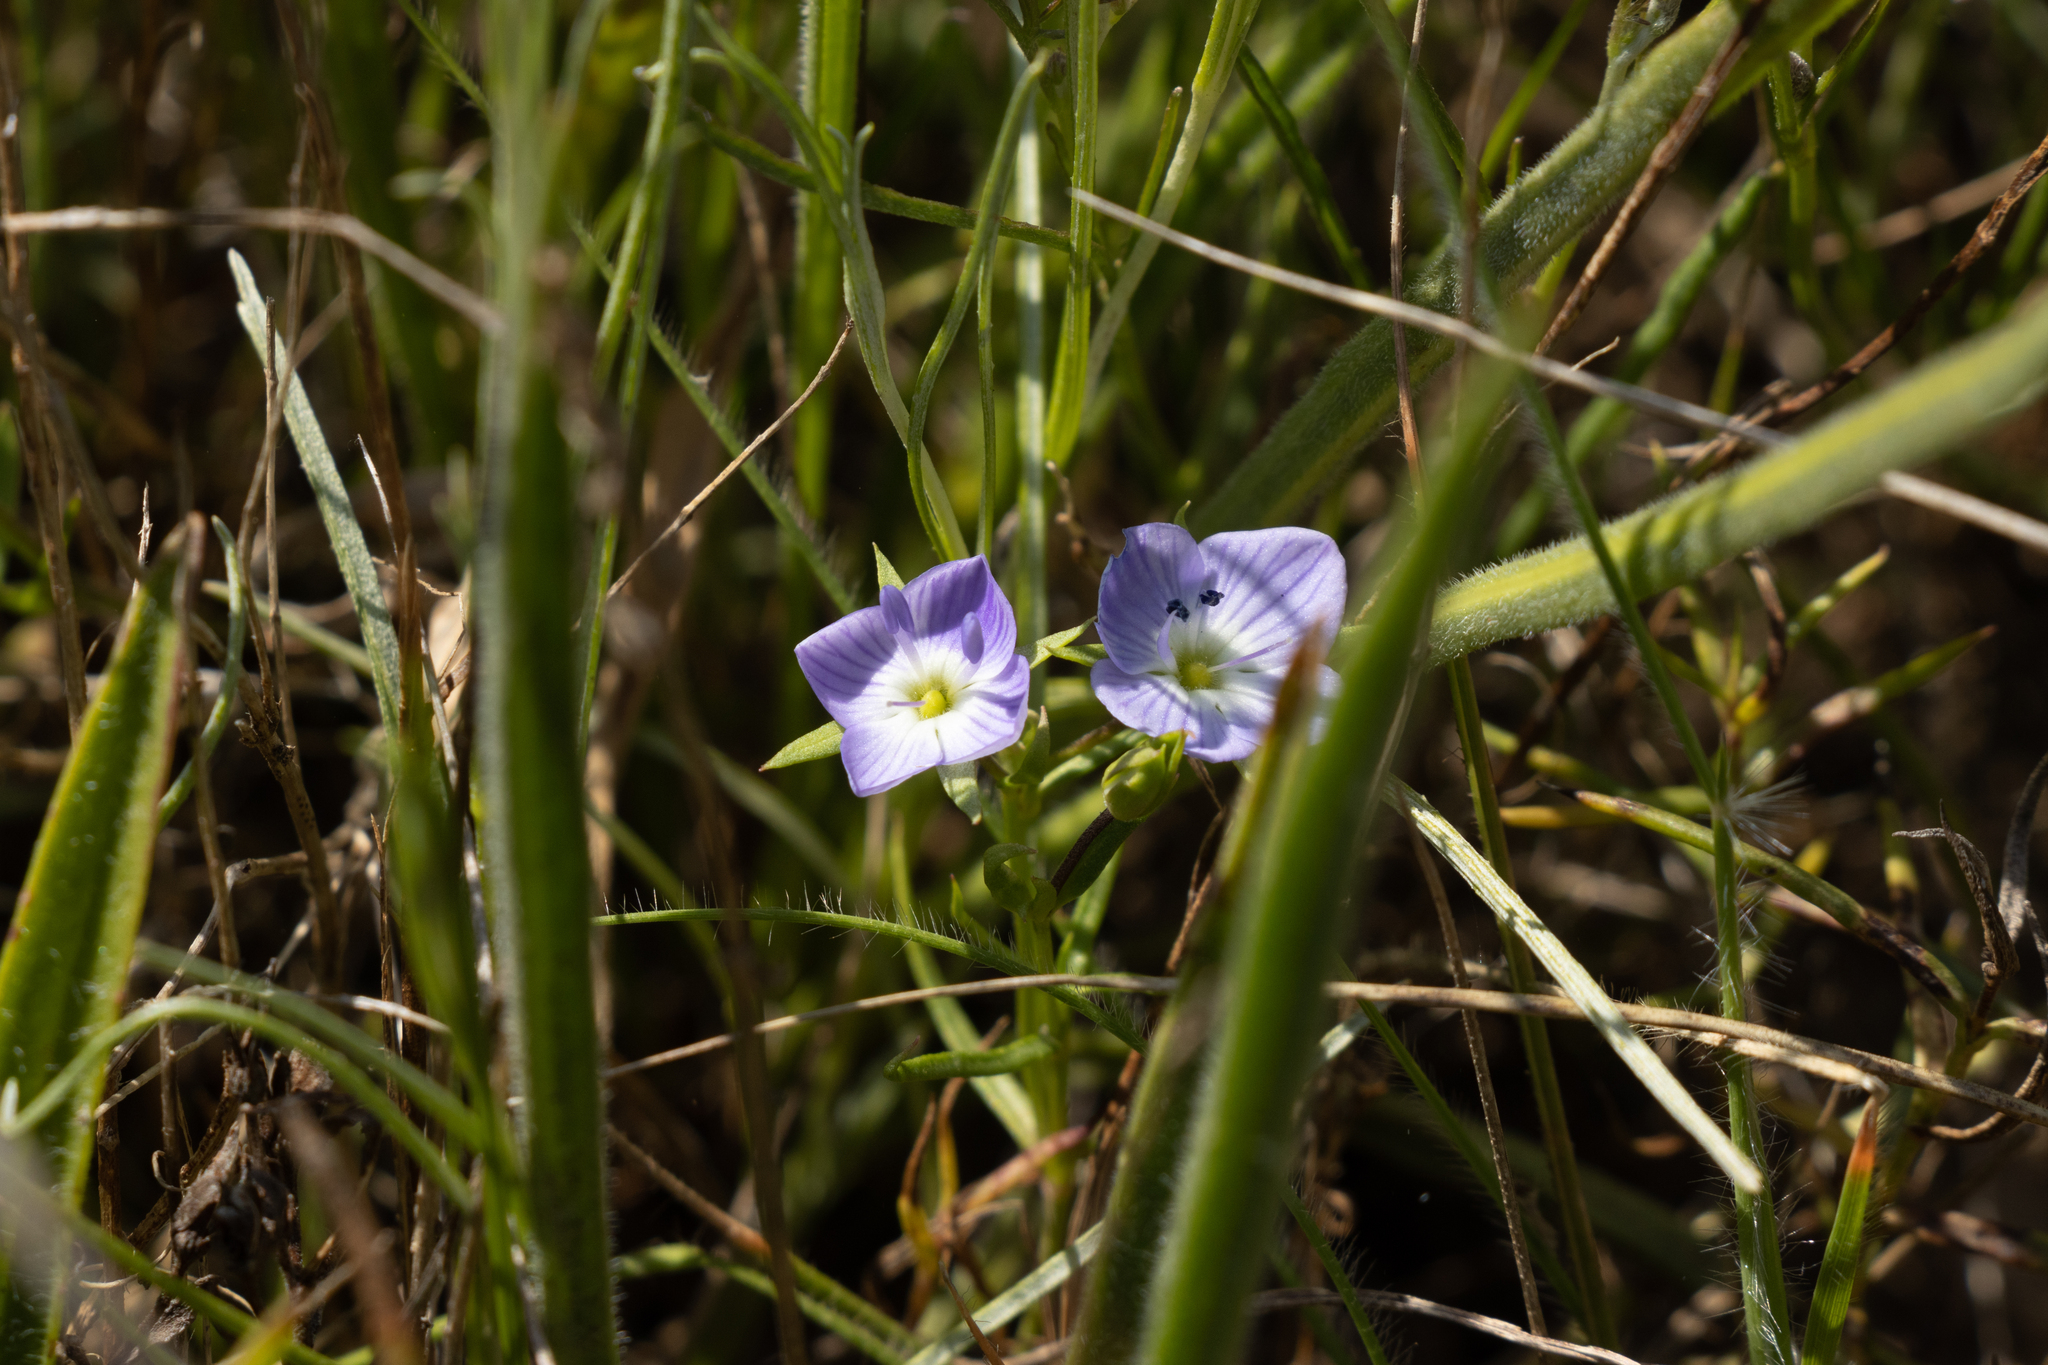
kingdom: Plantae
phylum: Tracheophyta
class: Magnoliopsida
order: Lamiales
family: Plantaginaceae
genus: Veronica
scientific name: Veronica gracilis
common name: Slender speedwell
